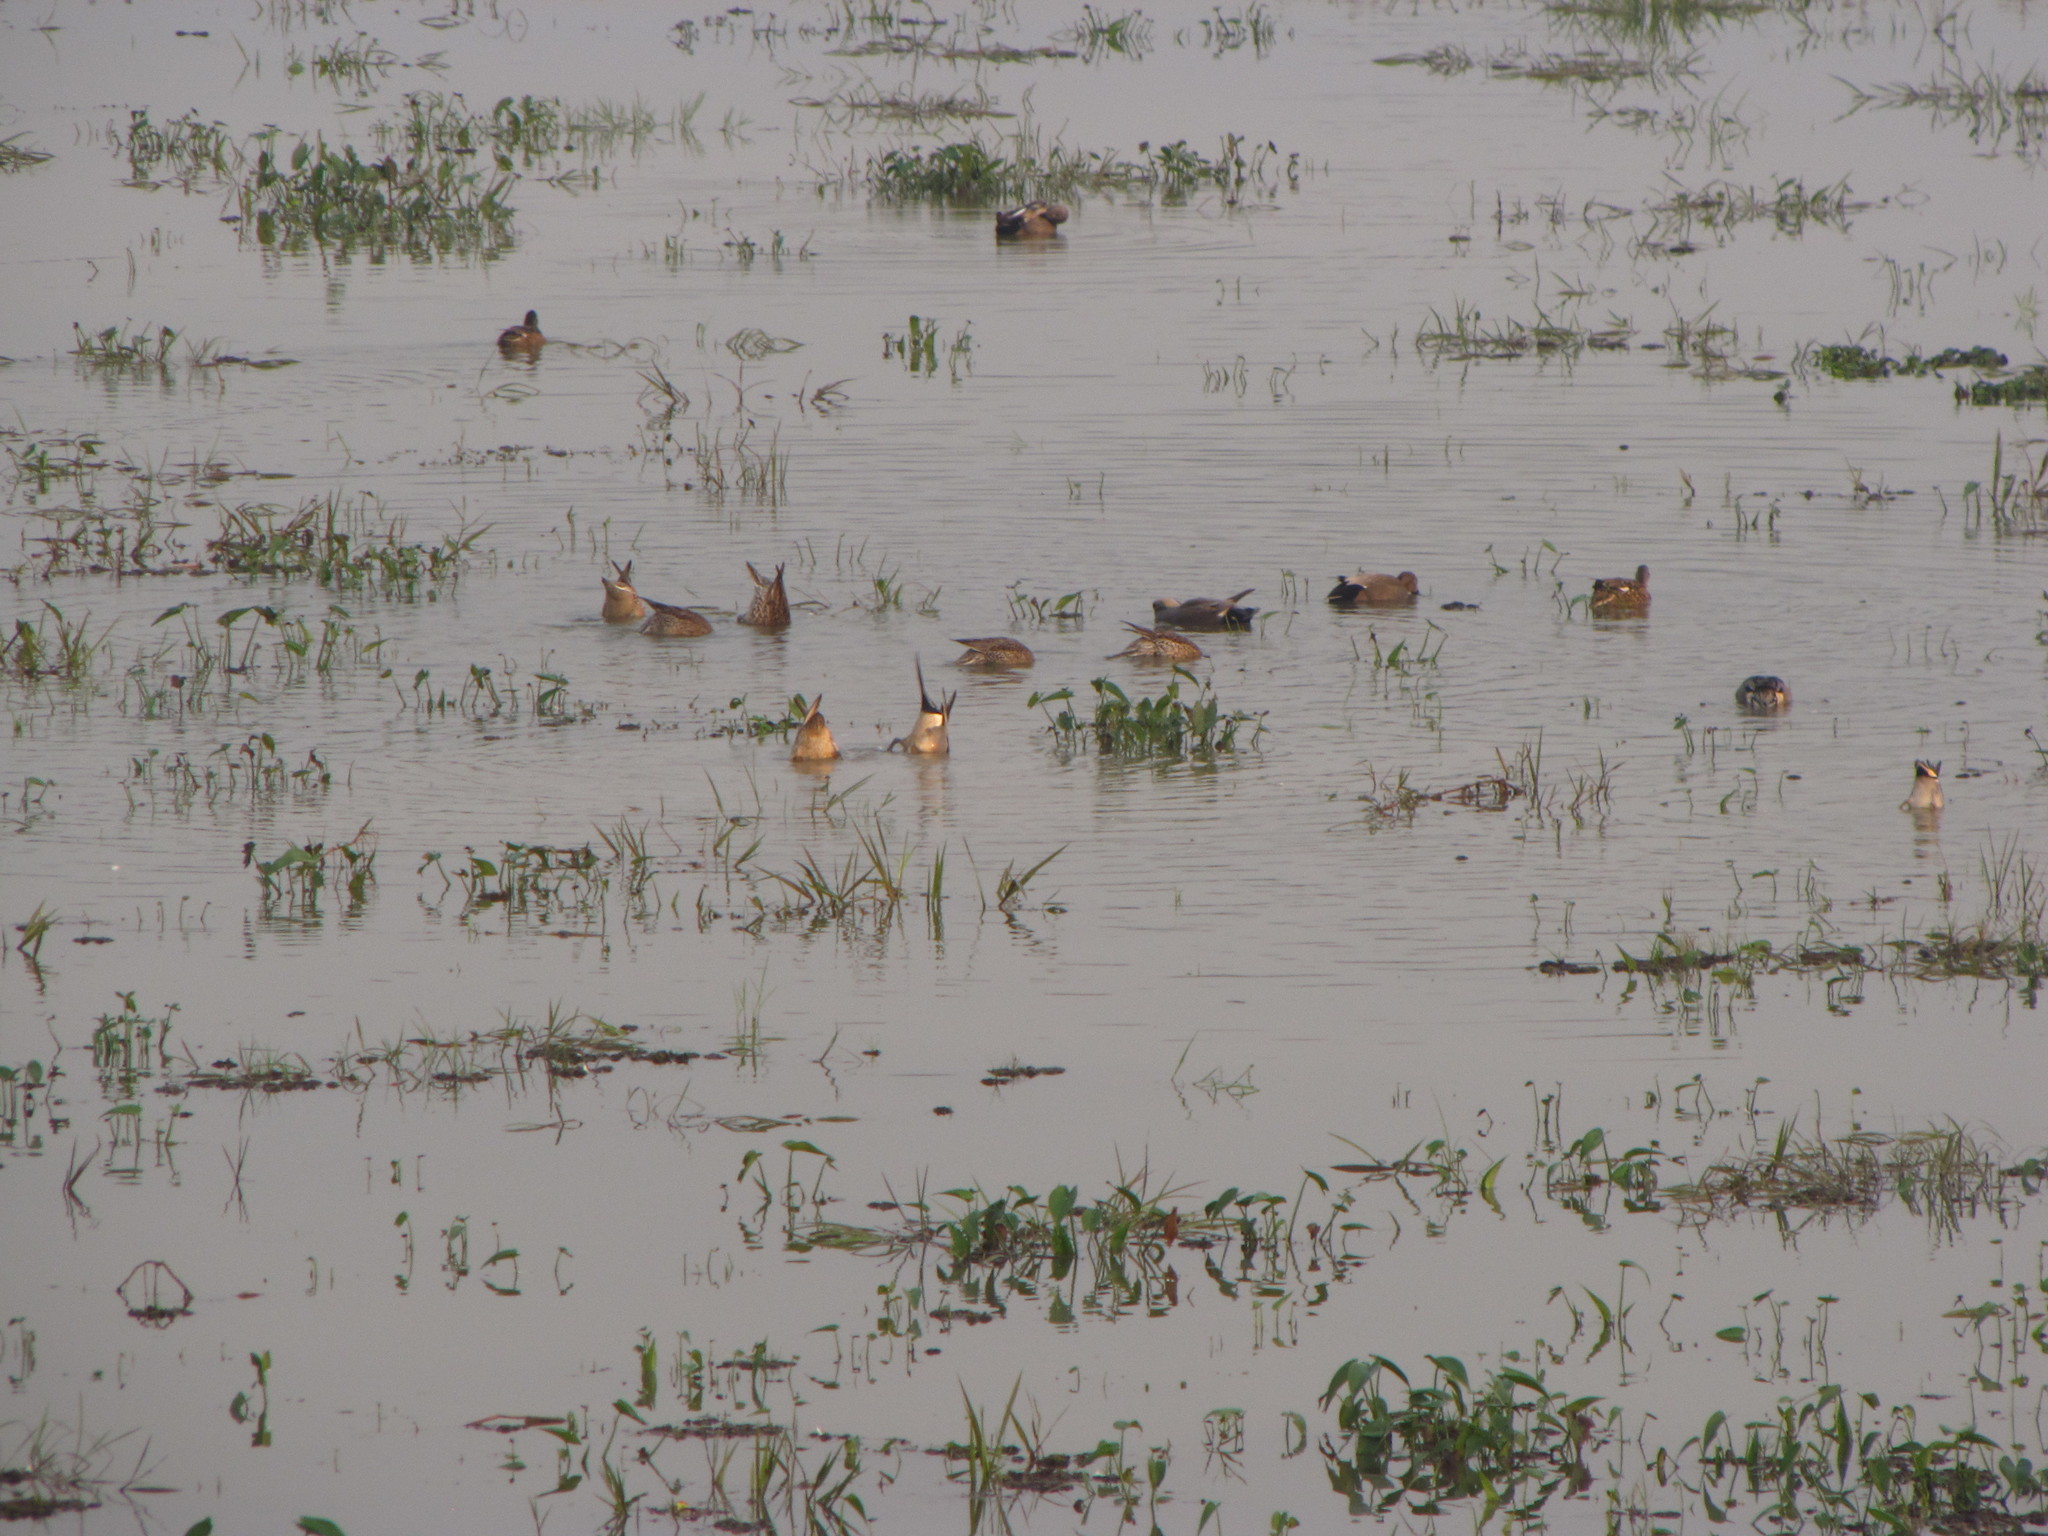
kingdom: Animalia
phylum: Chordata
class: Aves
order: Anseriformes
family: Anatidae
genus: Anas
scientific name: Anas acuta
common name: Northern pintail
